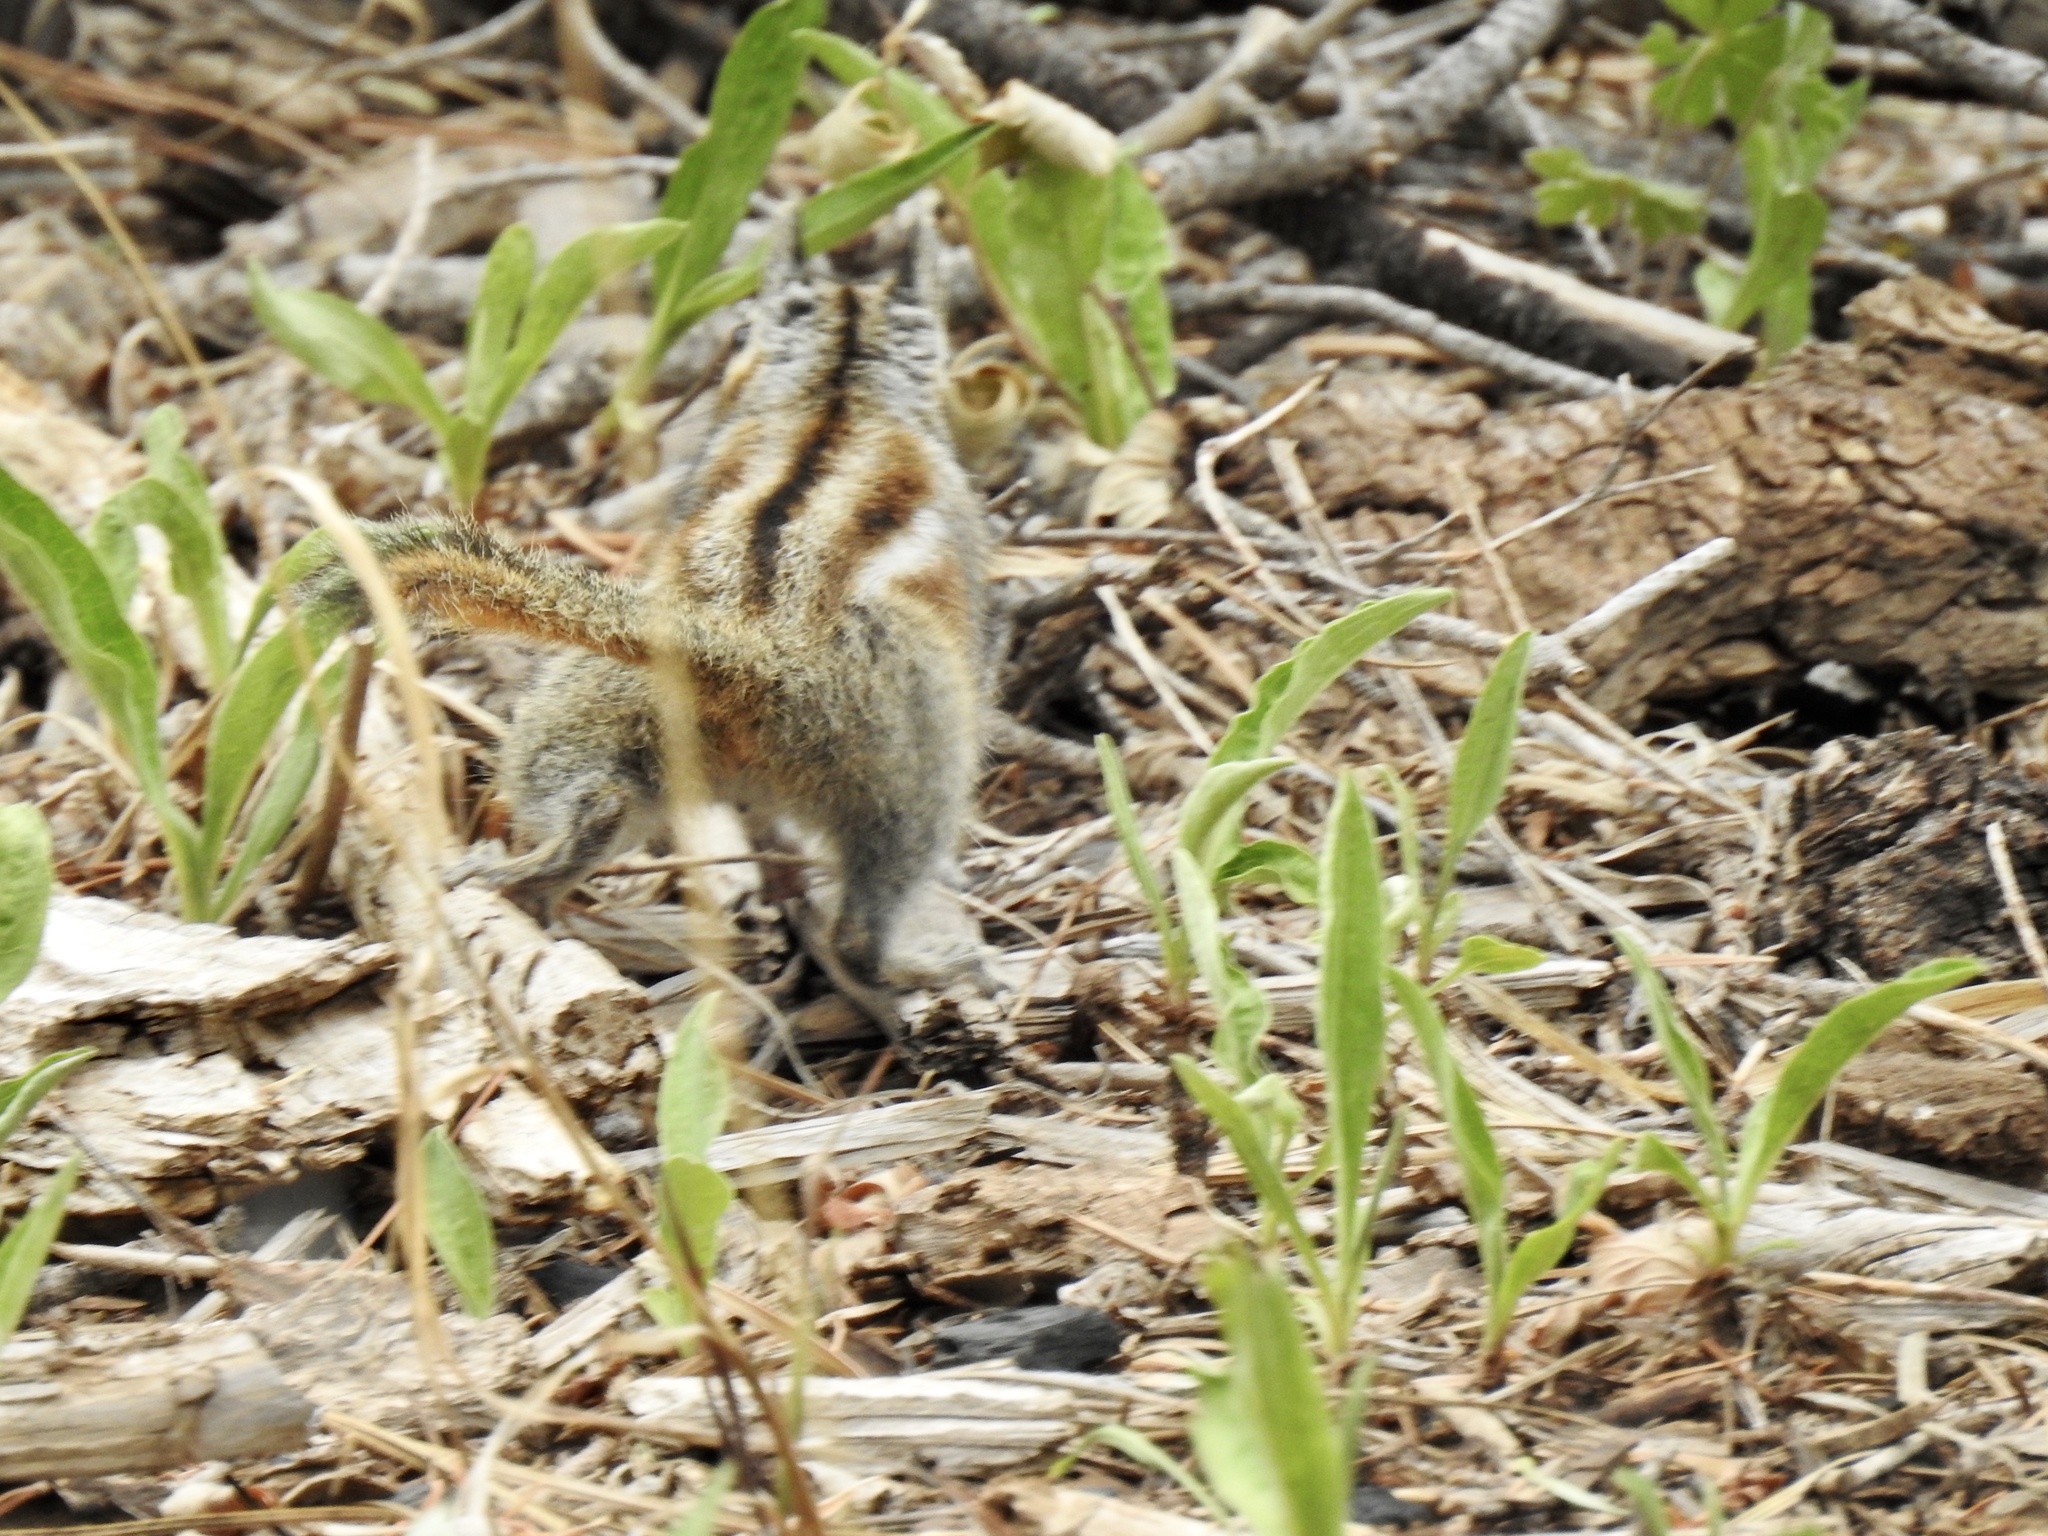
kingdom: Animalia
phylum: Chordata
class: Mammalia
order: Rodentia
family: Sciuridae
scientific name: Sciuridae
